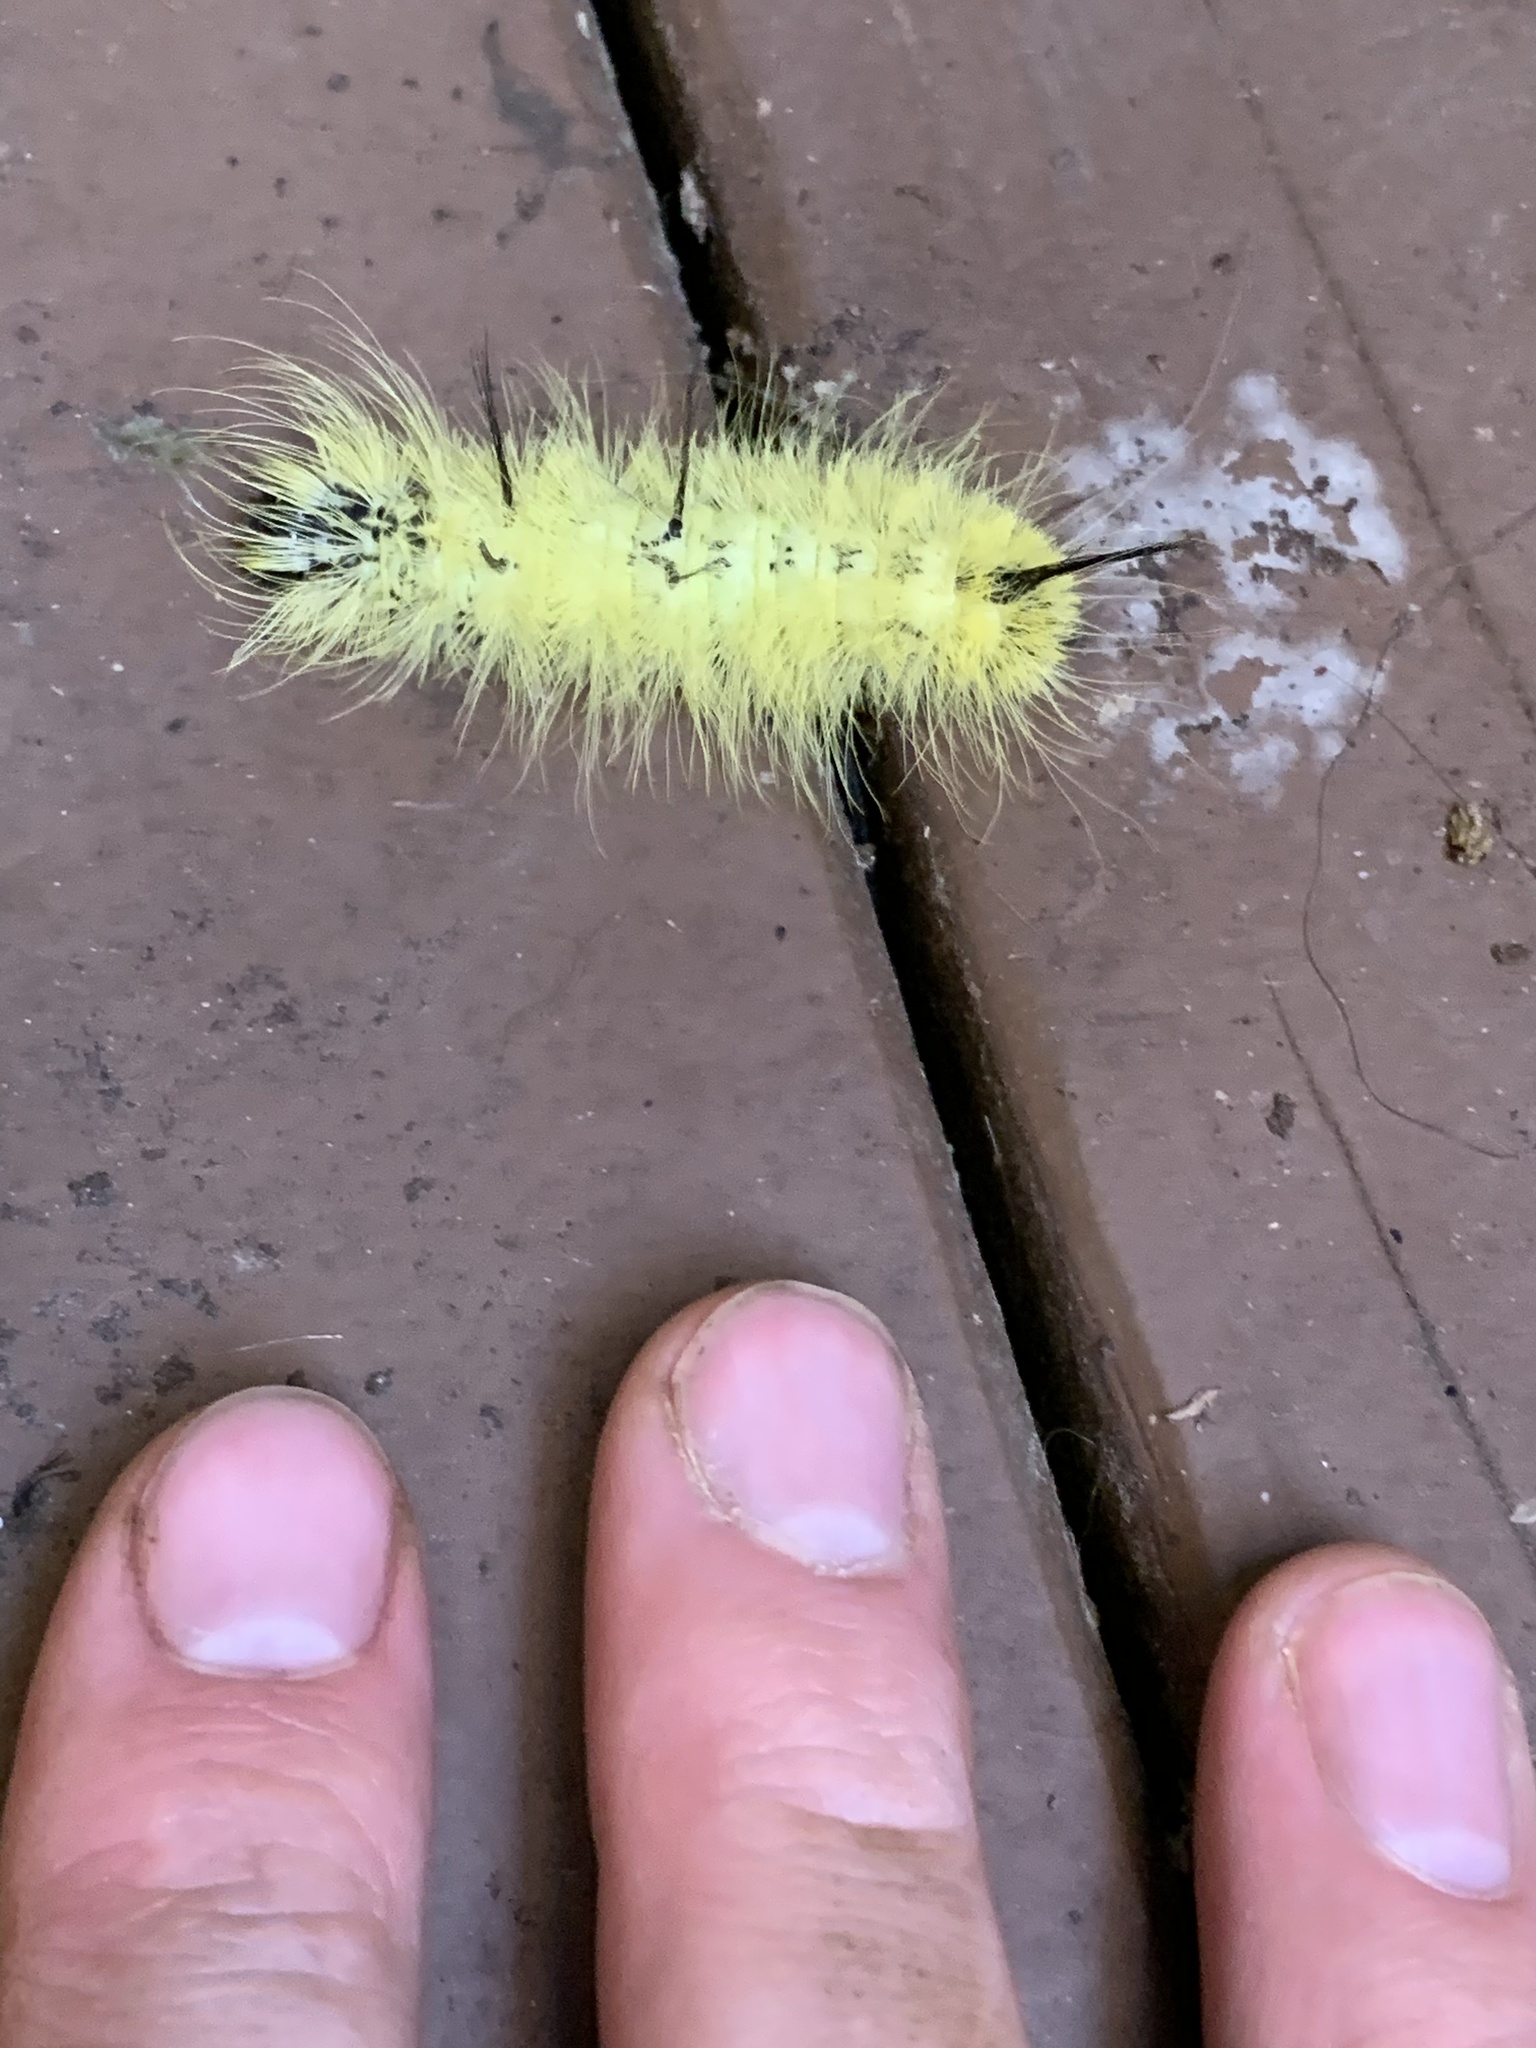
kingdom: Animalia
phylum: Arthropoda
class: Insecta
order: Lepidoptera
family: Noctuidae
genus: Acronicta
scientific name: Acronicta americana
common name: American dagger
